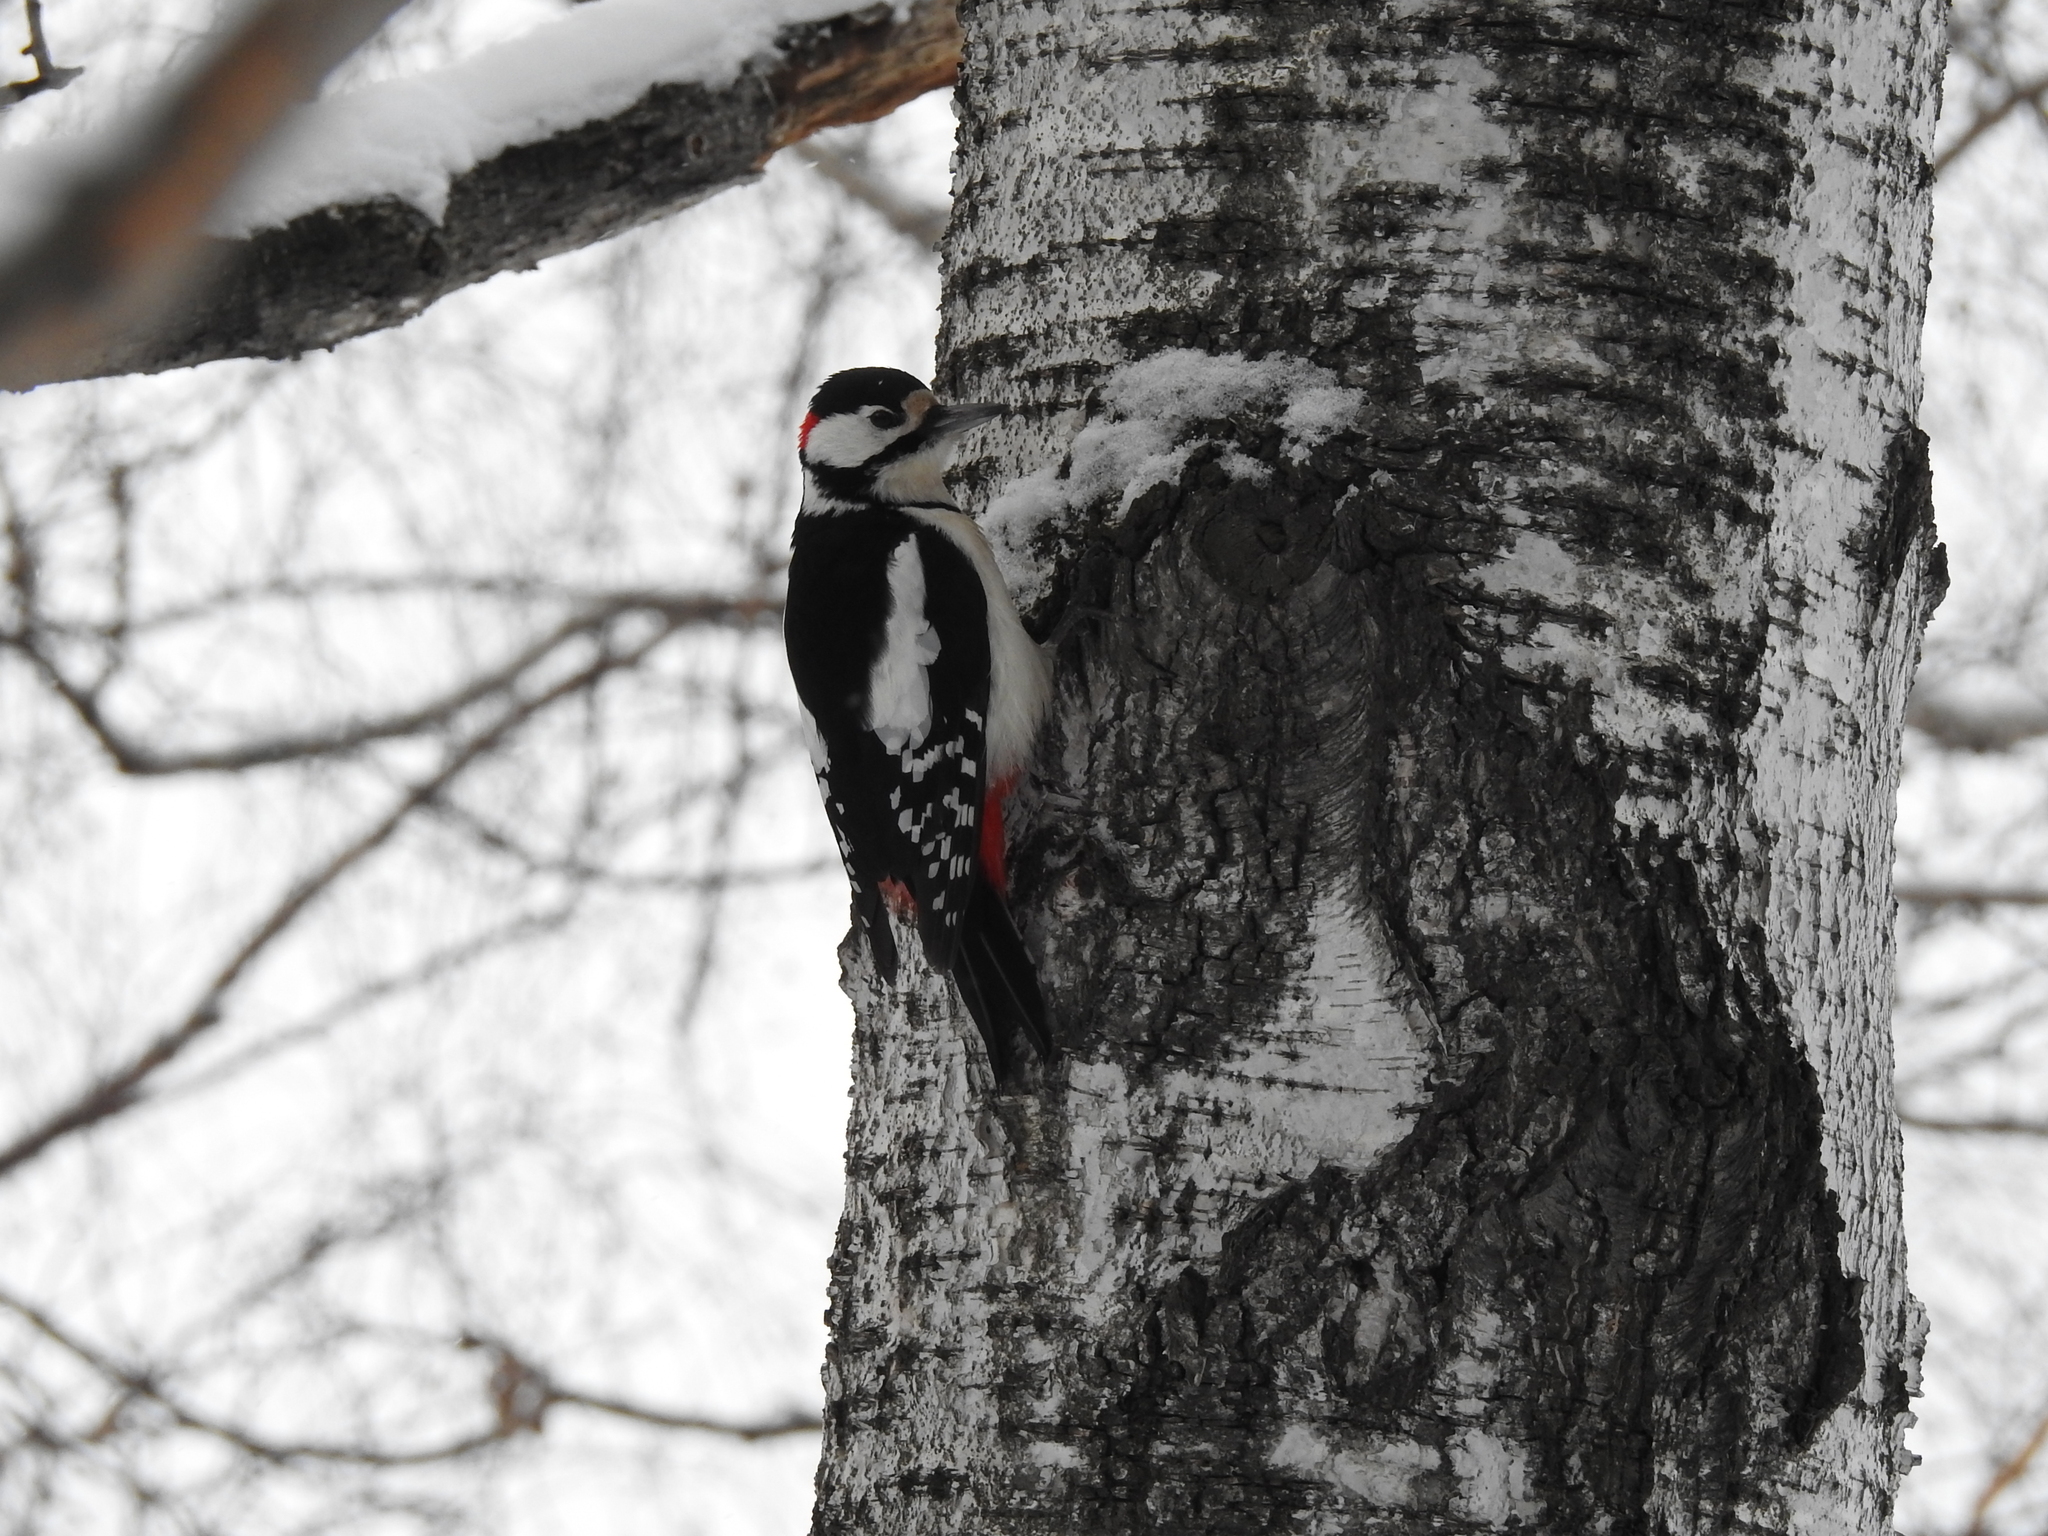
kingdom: Animalia
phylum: Chordata
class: Aves
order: Piciformes
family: Picidae
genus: Dendrocopos
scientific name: Dendrocopos major
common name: Great spotted woodpecker
